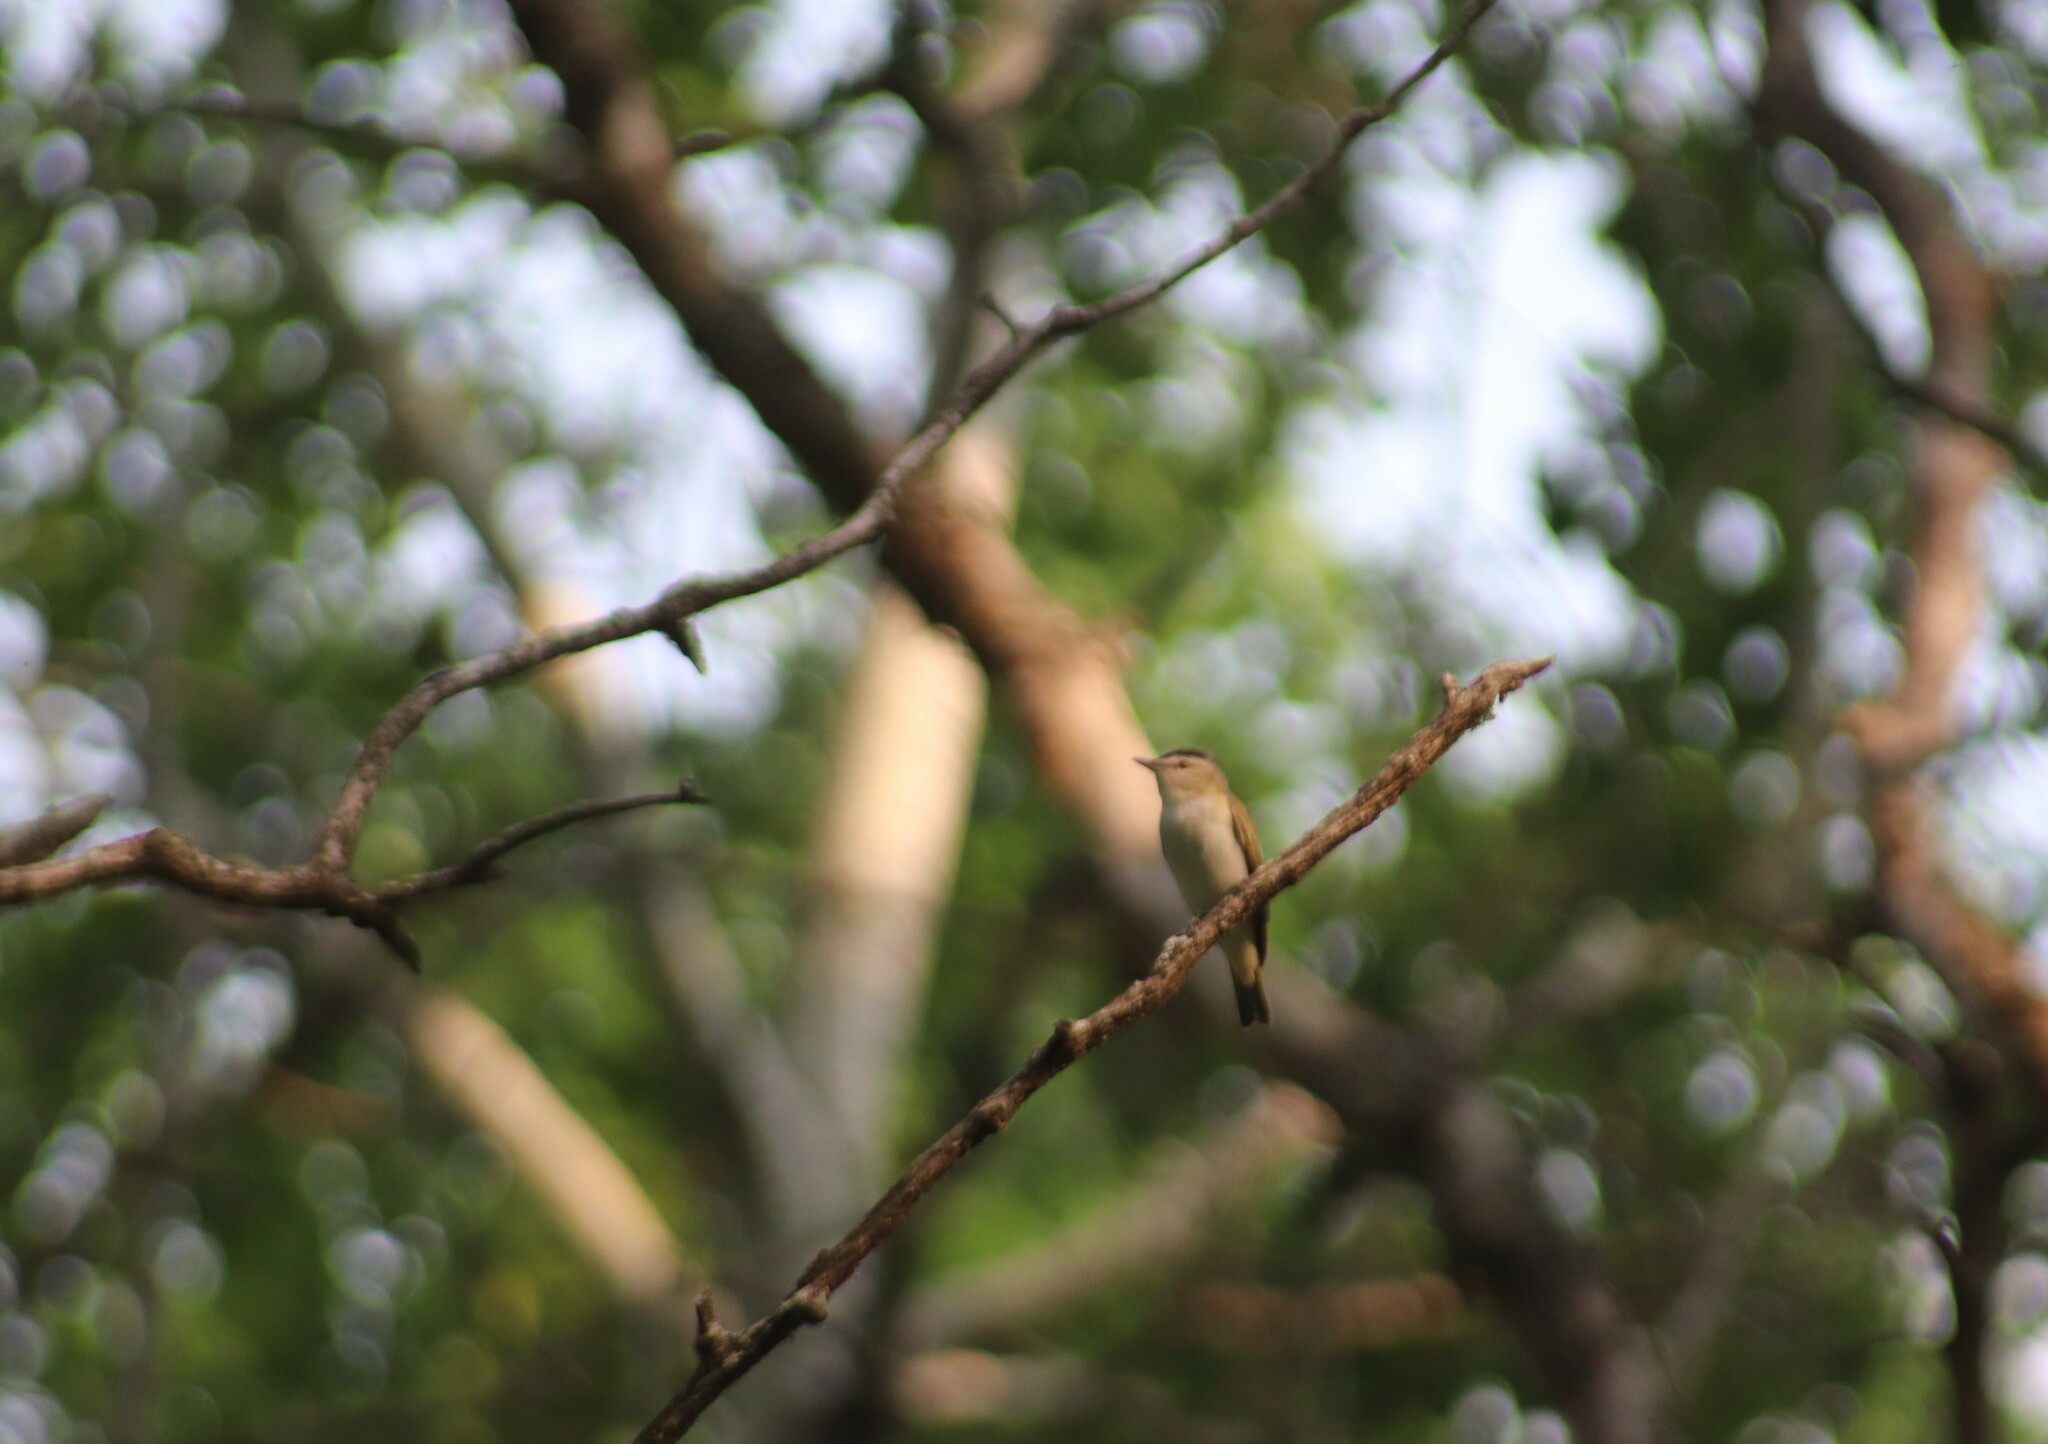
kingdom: Animalia
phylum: Chordata
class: Aves
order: Passeriformes
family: Vireonidae
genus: Vireo
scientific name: Vireo olivaceus
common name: Red-eyed vireo
